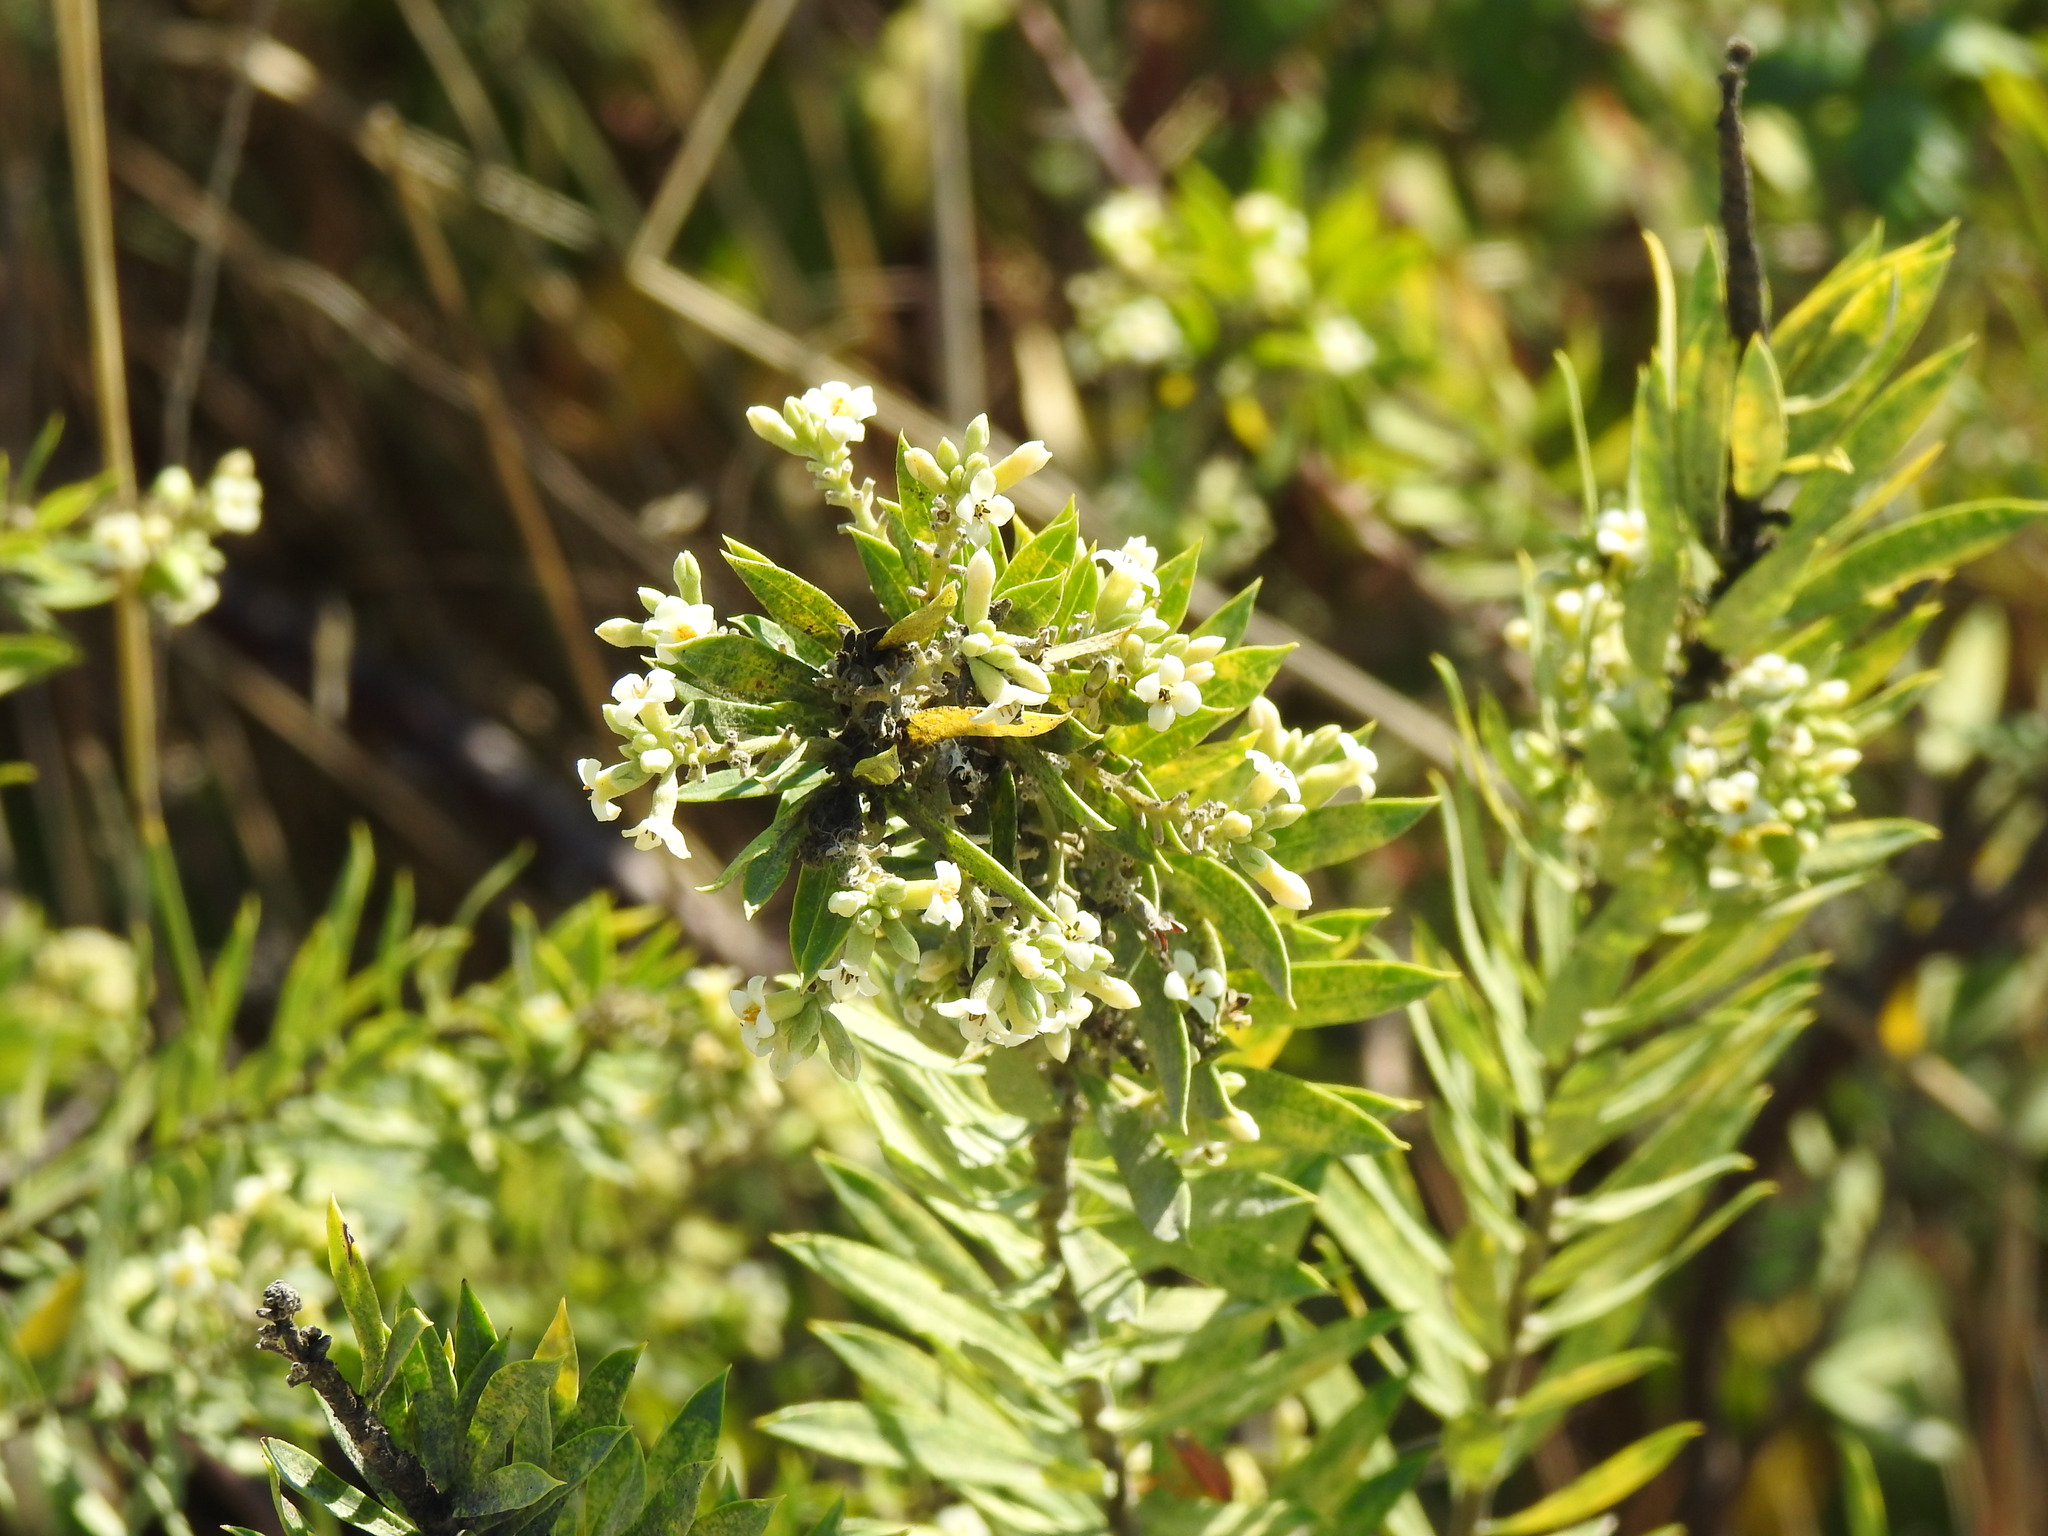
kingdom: Plantae
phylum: Tracheophyta
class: Magnoliopsida
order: Malvales
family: Thymelaeaceae
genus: Daphne
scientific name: Daphne gnidium
